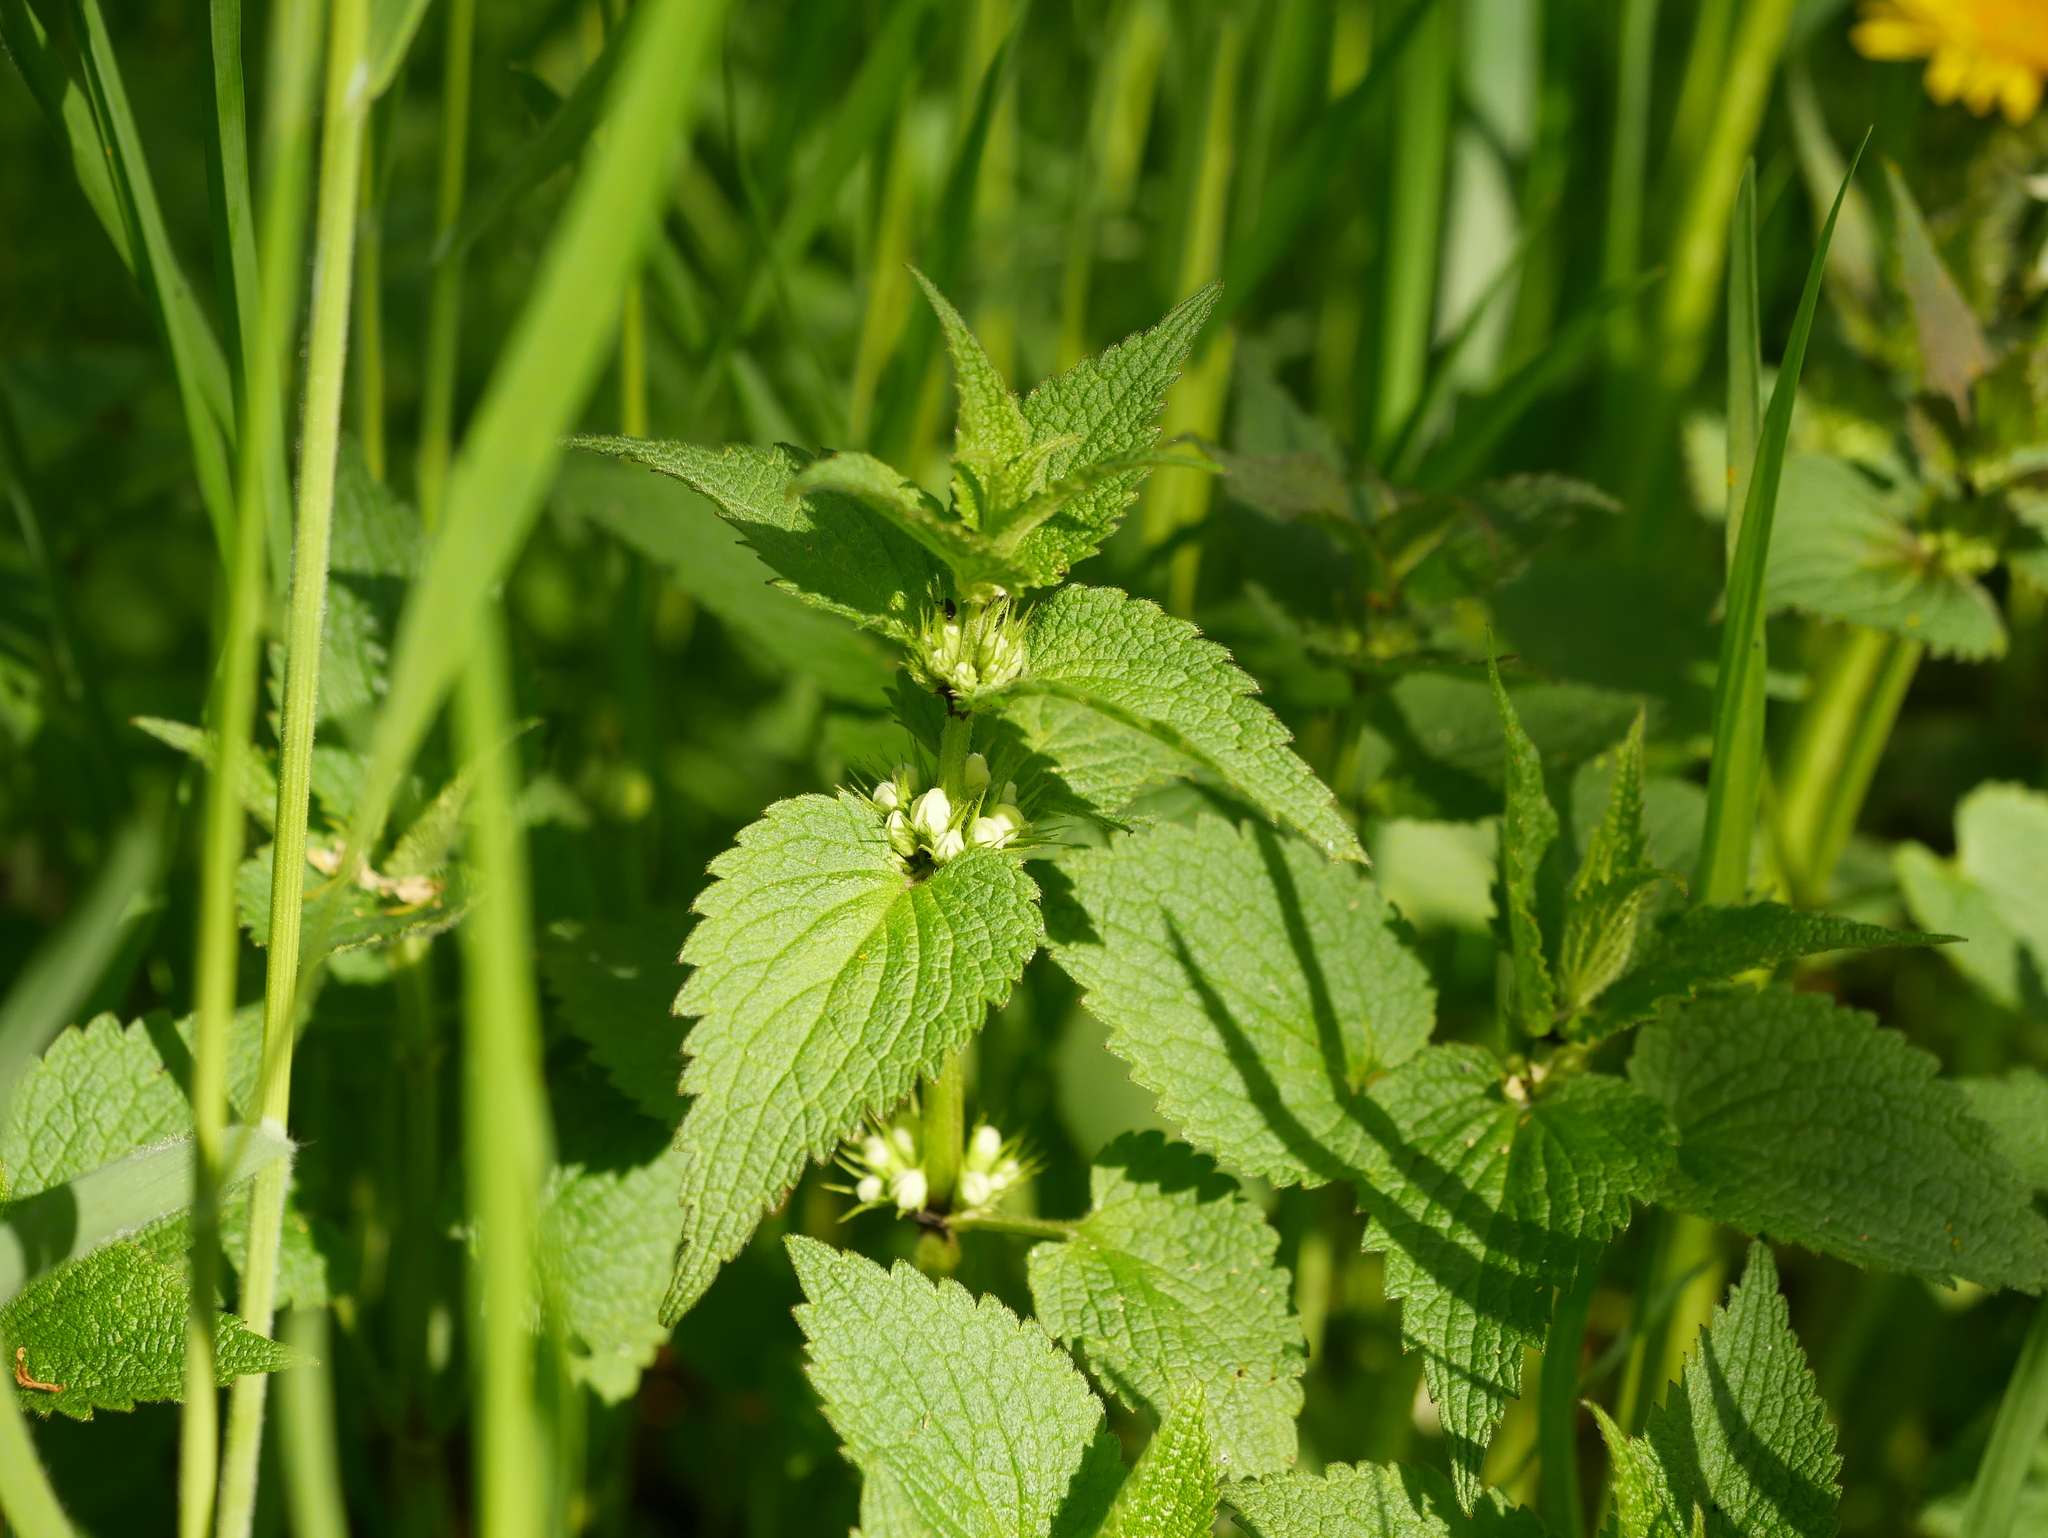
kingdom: Plantae
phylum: Tracheophyta
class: Magnoliopsida
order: Lamiales
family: Lamiaceae
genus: Lamium
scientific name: Lamium album
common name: White dead-nettle
